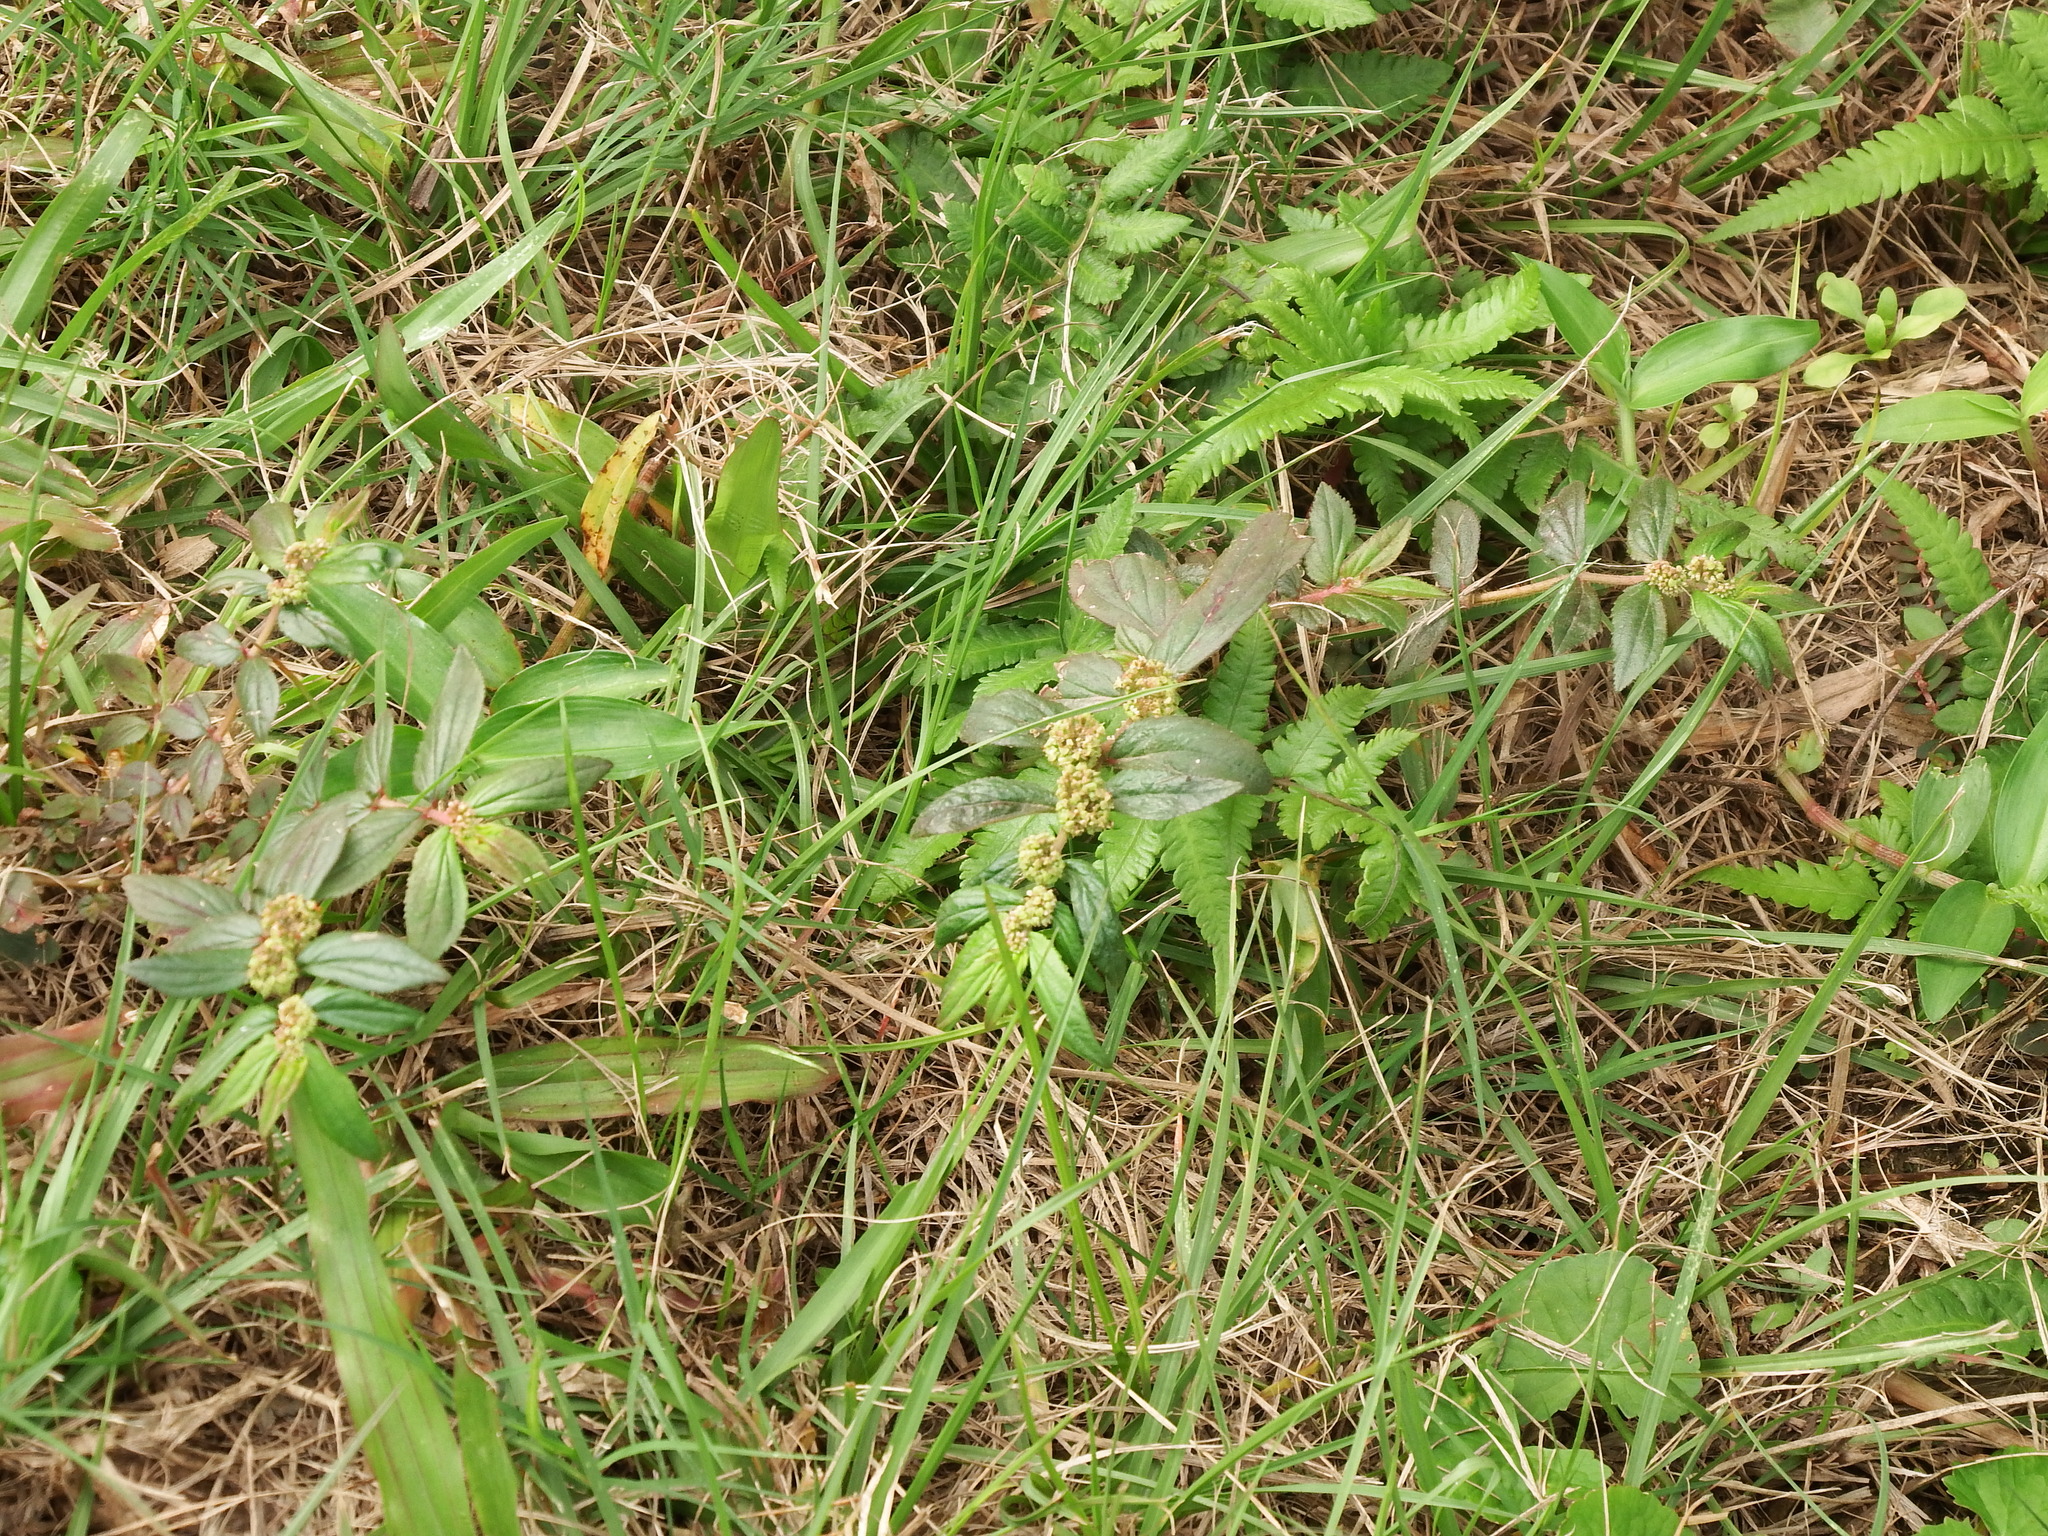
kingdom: Plantae
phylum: Tracheophyta
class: Magnoliopsida
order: Malpighiales
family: Euphorbiaceae
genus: Euphorbia
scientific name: Euphorbia hirta
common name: Pillpod sandmat
